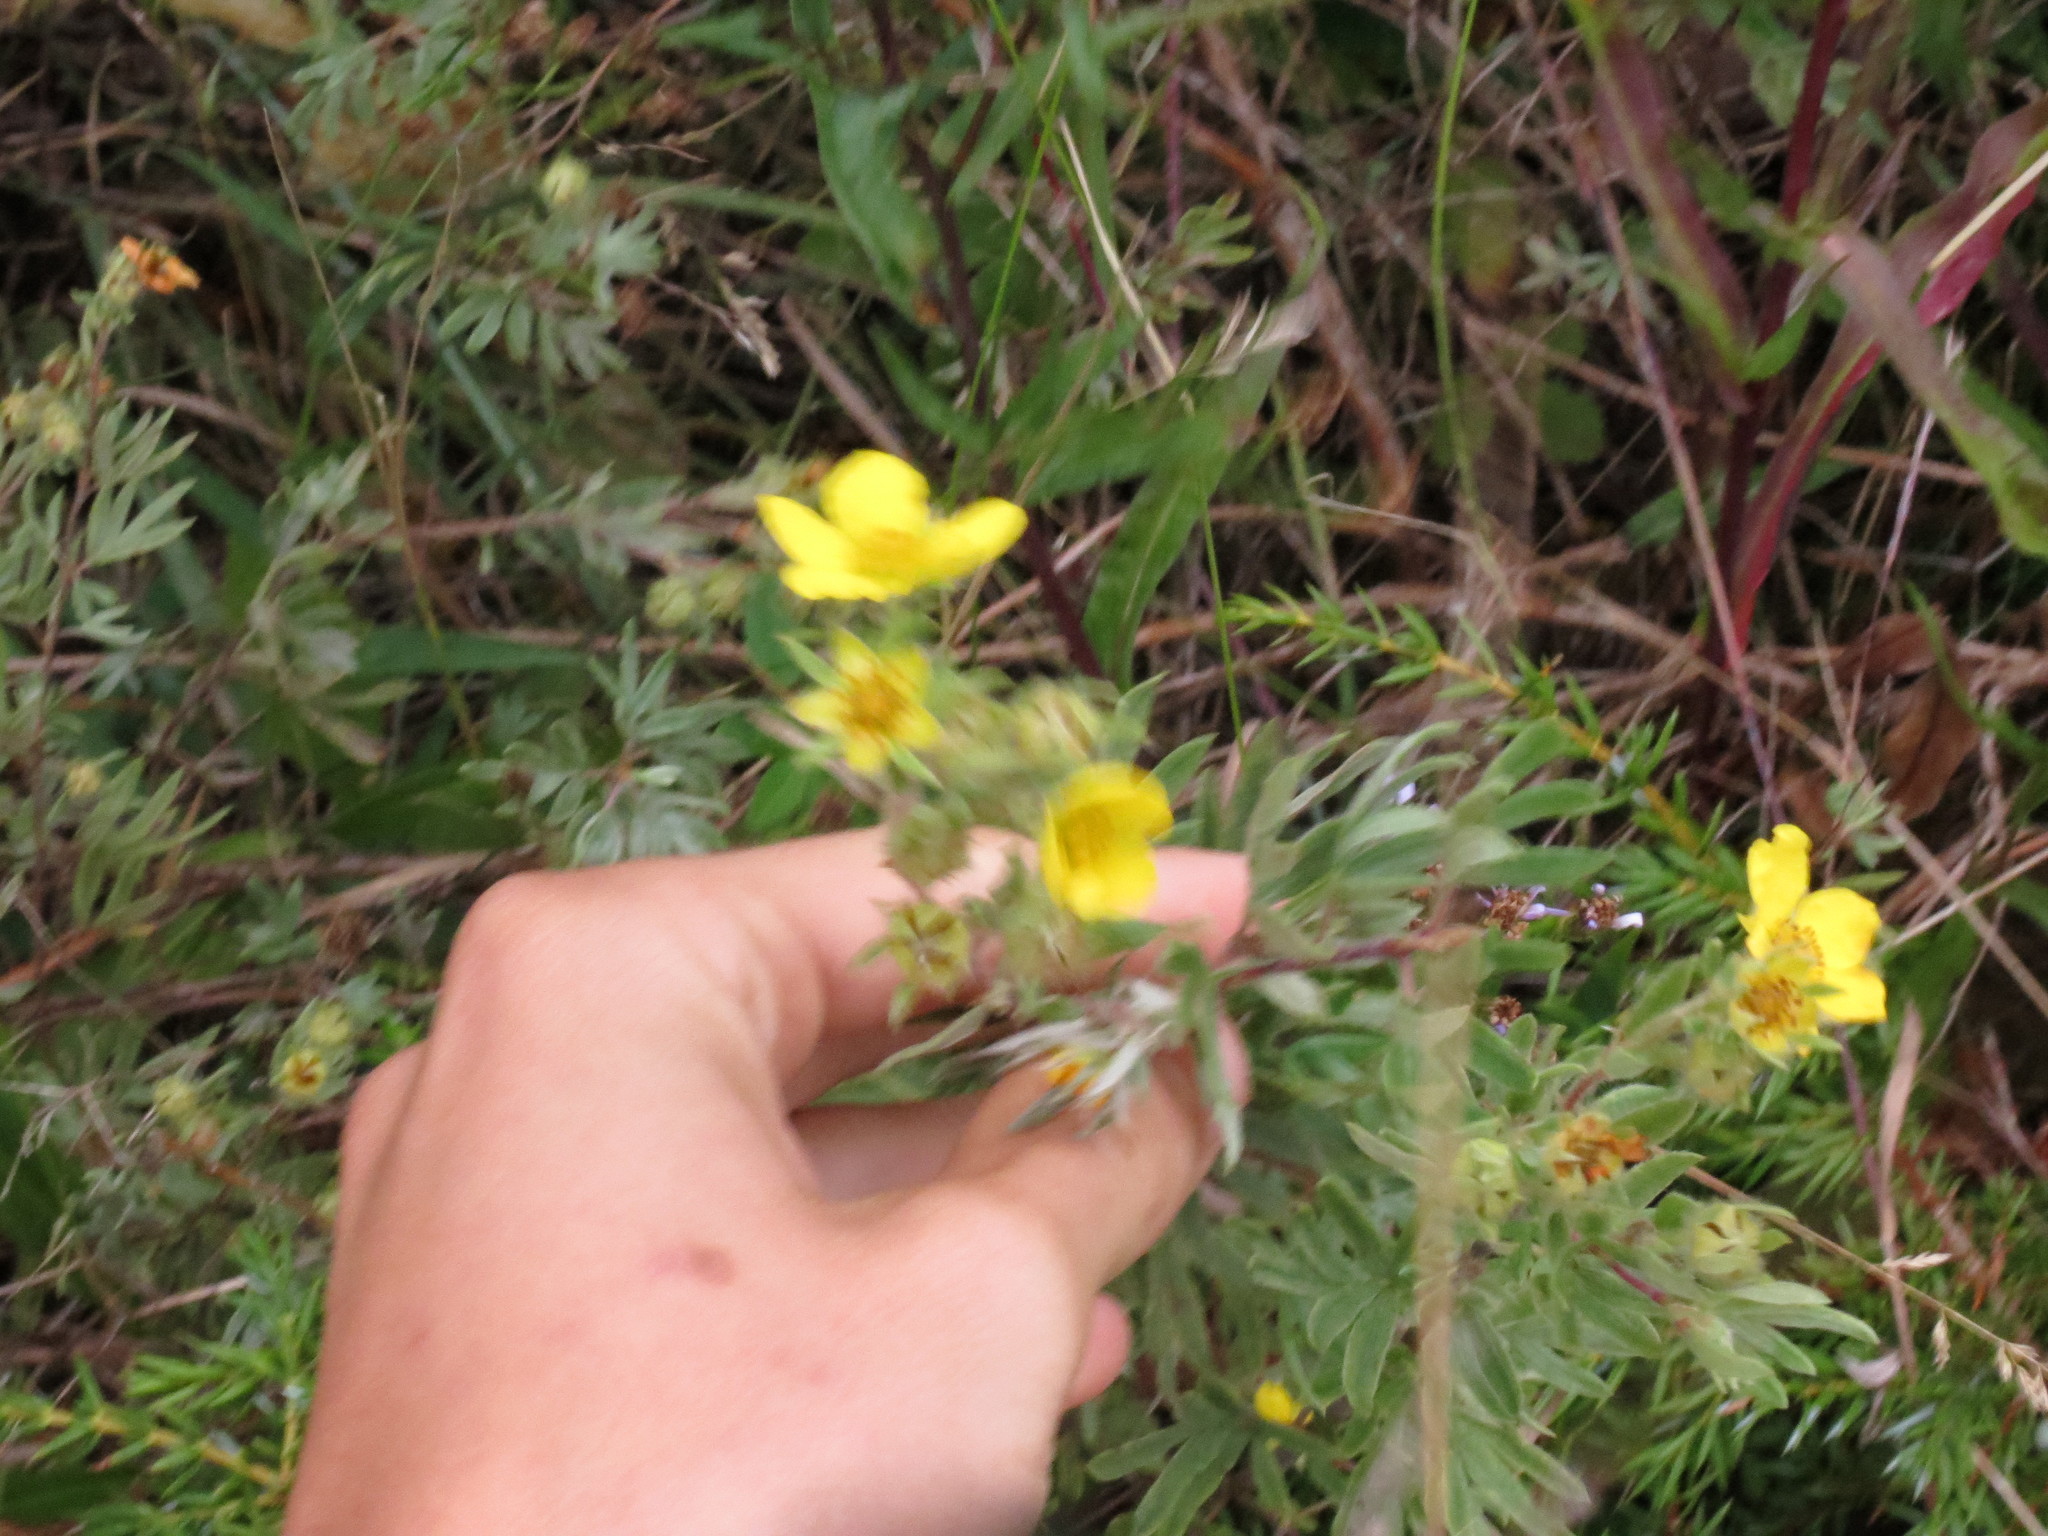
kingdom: Plantae
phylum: Tracheophyta
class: Magnoliopsida
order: Rosales
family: Rosaceae
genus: Dasiphora
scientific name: Dasiphora fruticosa
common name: Shrubby cinquefoil
